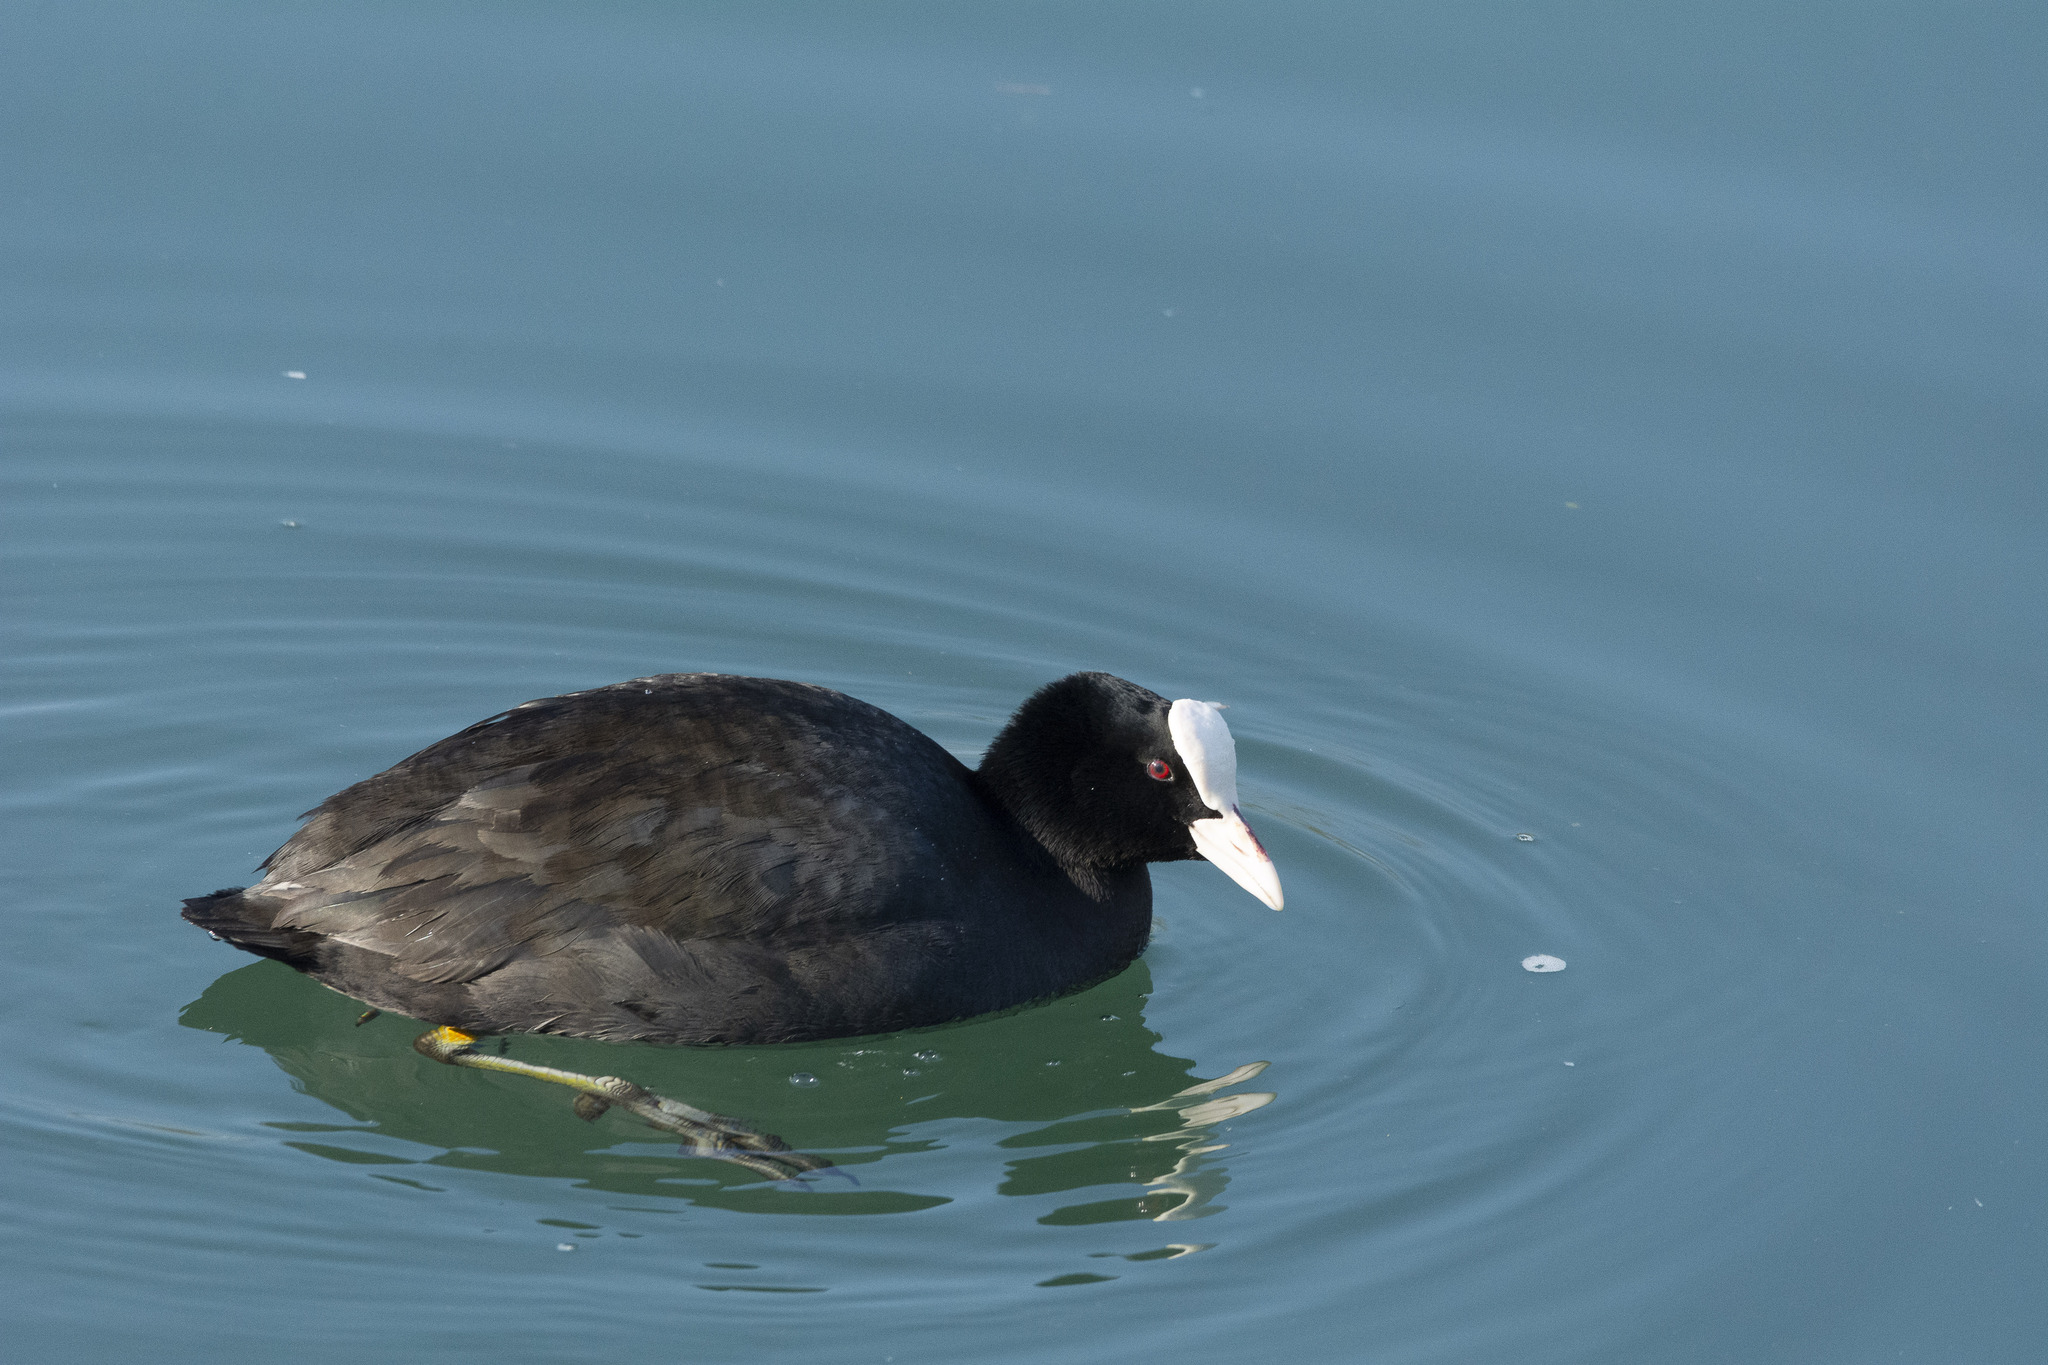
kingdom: Animalia
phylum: Chordata
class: Aves
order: Gruiformes
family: Rallidae
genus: Fulica
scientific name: Fulica atra
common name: Eurasian coot
